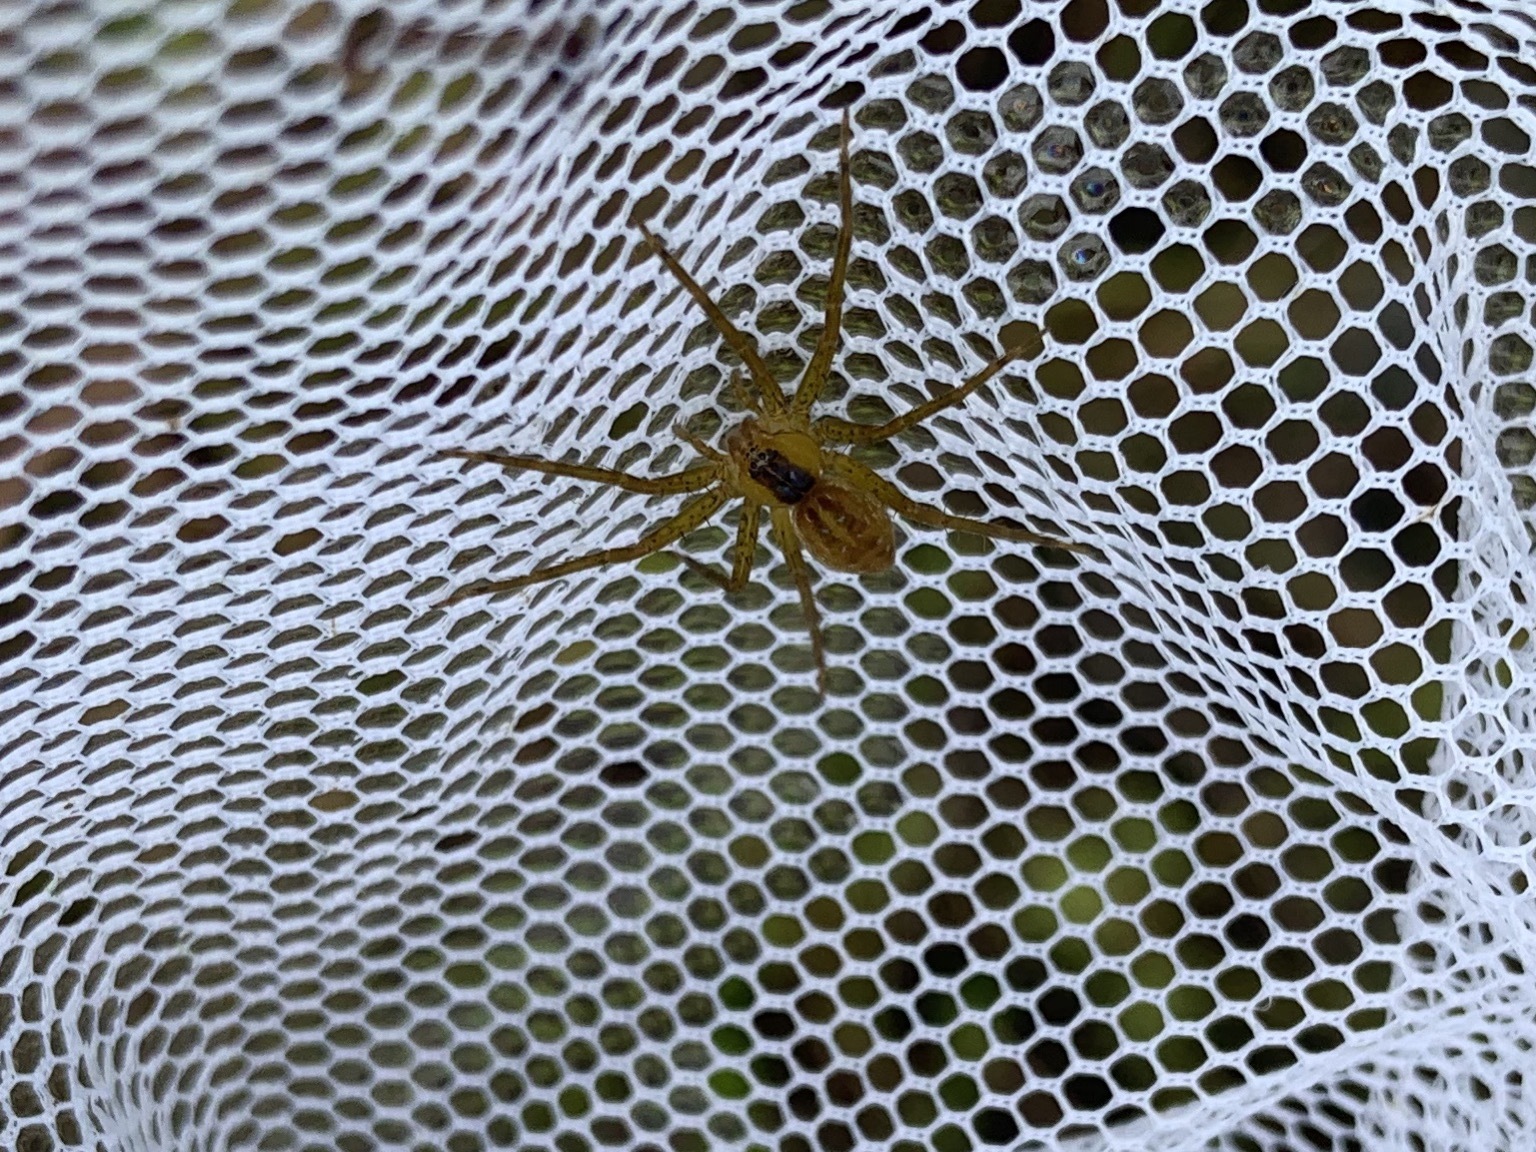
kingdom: Animalia
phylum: Arthropoda
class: Arachnida
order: Araneae
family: Pisauridae
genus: Dolomedes
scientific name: Dolomedes triton
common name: Six-spotted fishing spider
